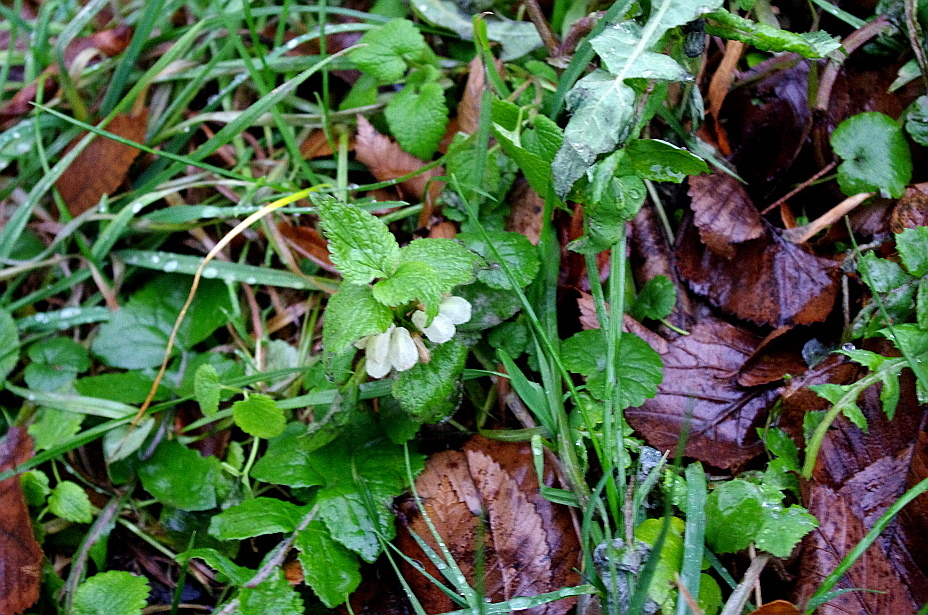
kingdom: Plantae
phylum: Tracheophyta
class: Magnoliopsida
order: Lamiales
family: Lamiaceae
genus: Lamium
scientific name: Lamium album
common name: White dead-nettle
